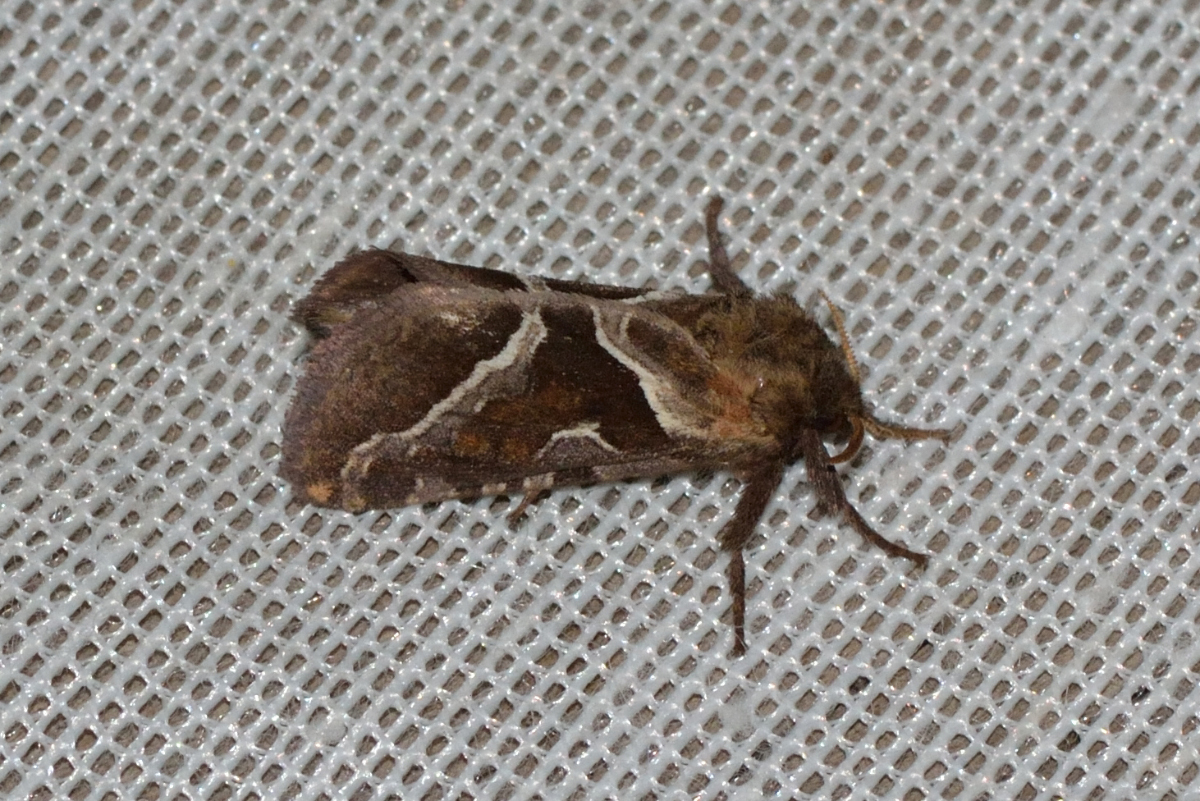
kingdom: Animalia
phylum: Arthropoda
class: Insecta
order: Lepidoptera
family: Hepialidae
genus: Triodia
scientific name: Triodia sylvina
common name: Orange swift
